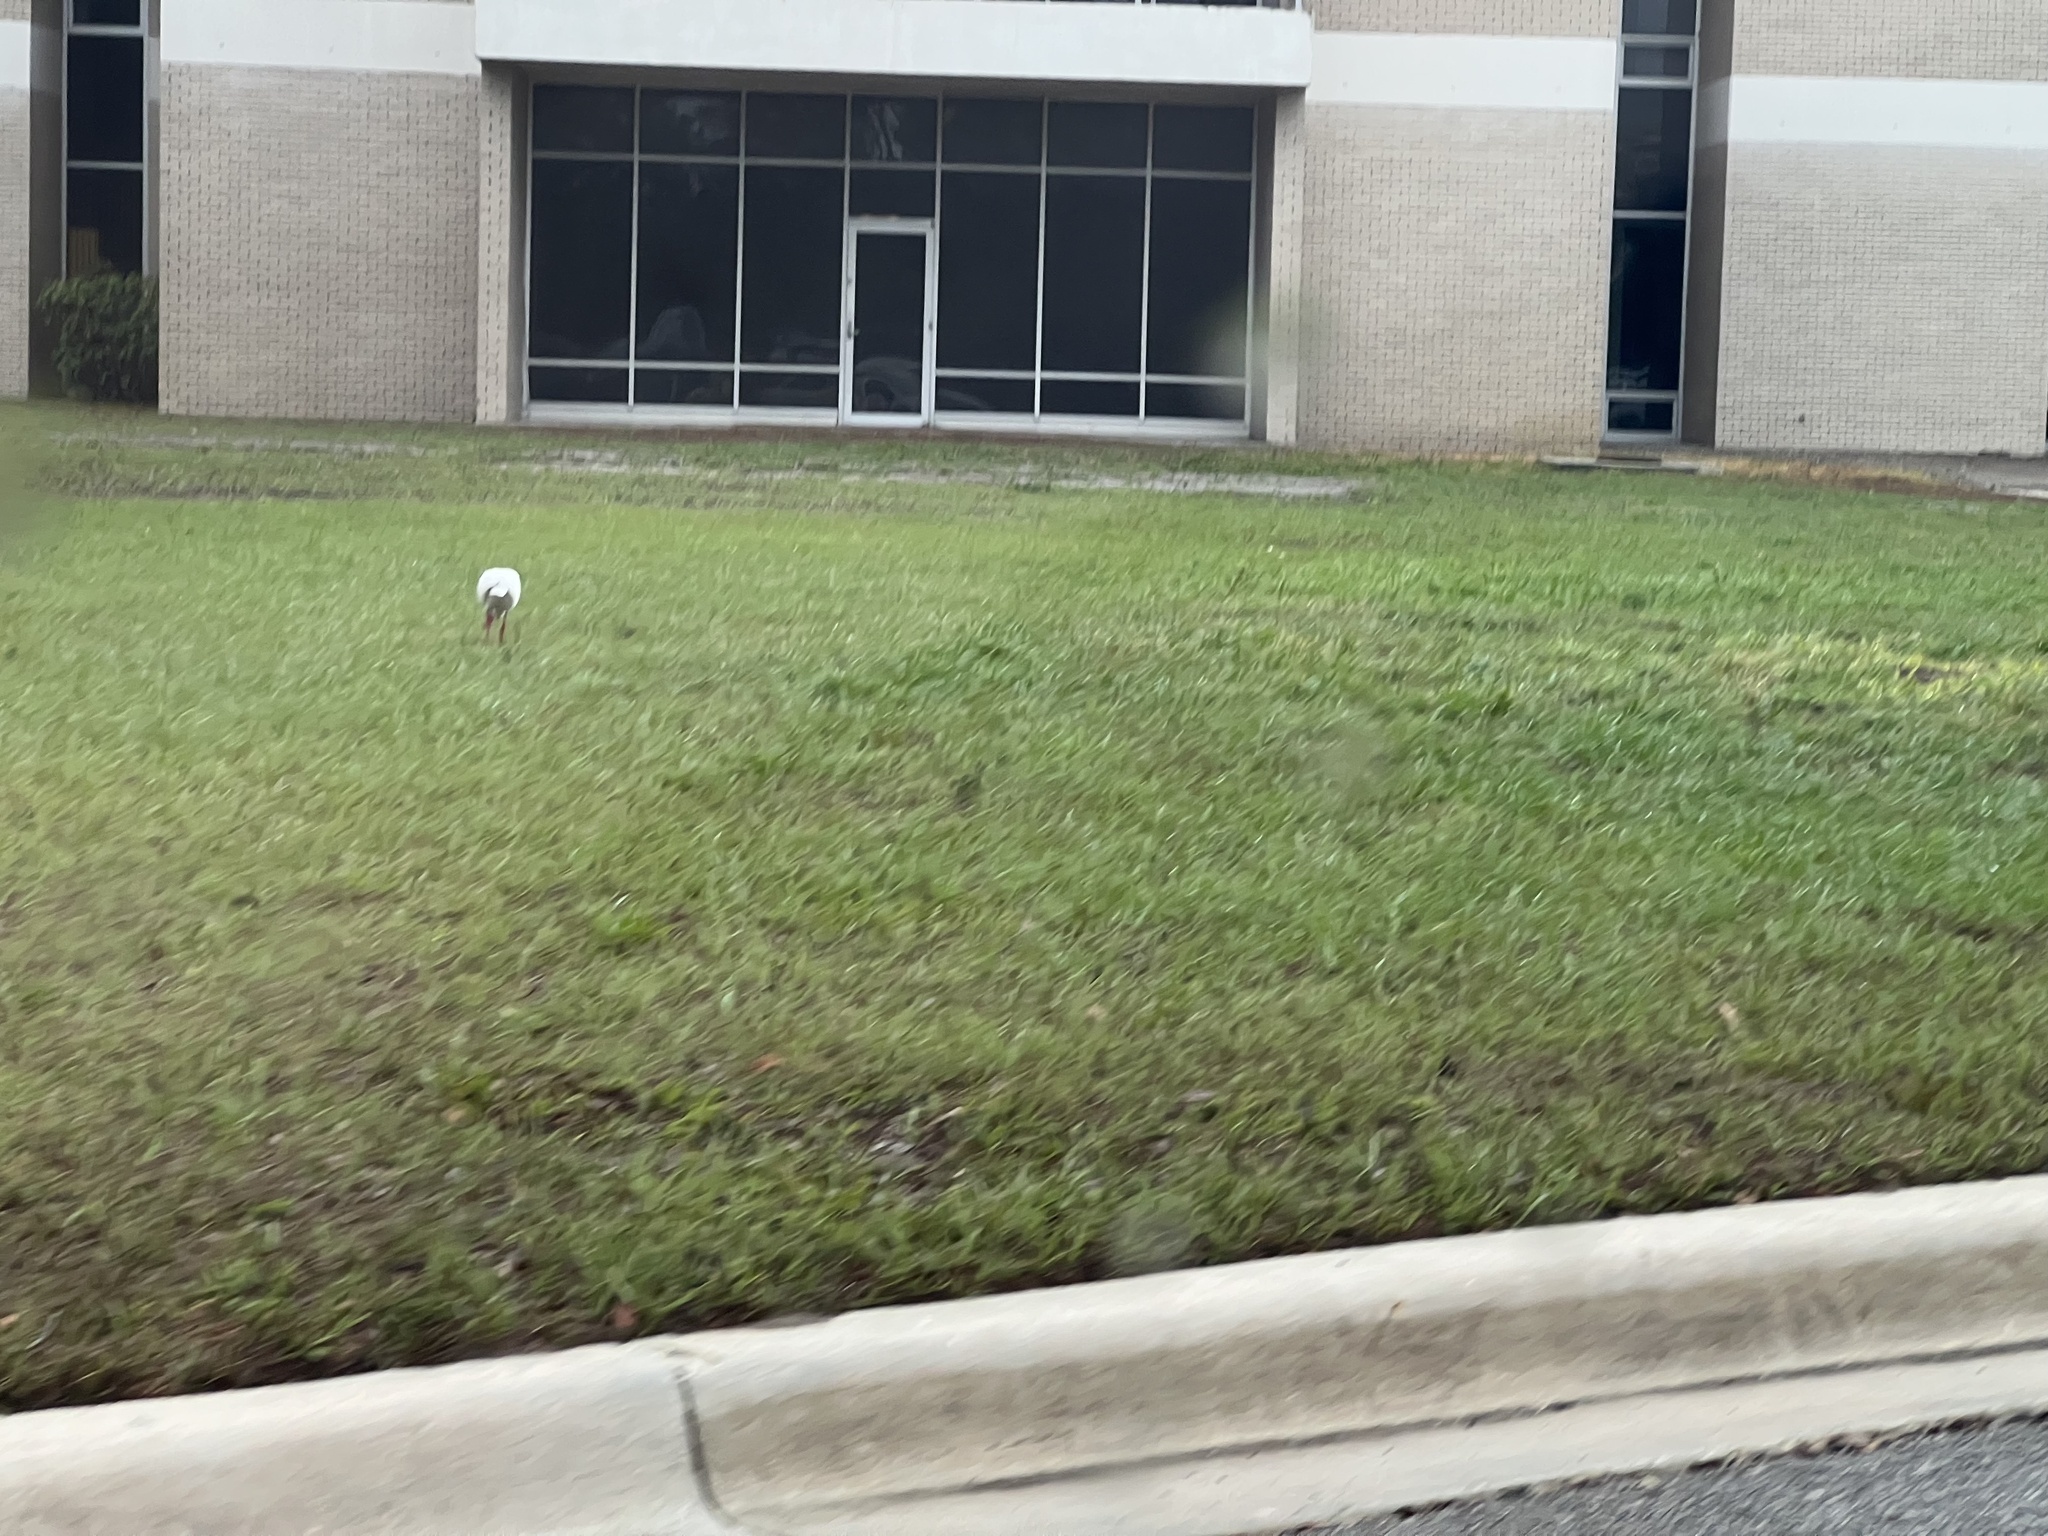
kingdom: Animalia
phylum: Chordata
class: Aves
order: Pelecaniformes
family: Threskiornithidae
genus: Eudocimus
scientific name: Eudocimus albus
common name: White ibis
